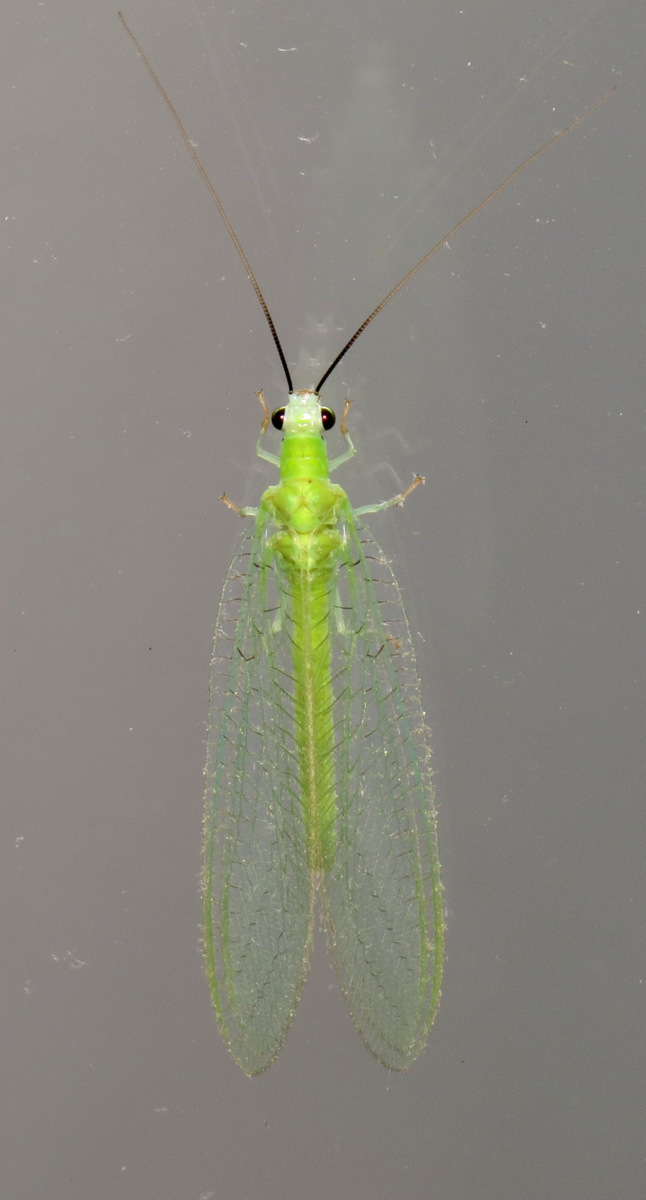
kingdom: Animalia
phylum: Arthropoda
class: Insecta
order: Neuroptera
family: Chrysopidae
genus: Chrysopa
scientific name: Chrysopa nigricornis
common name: Black-horned green lacewing
